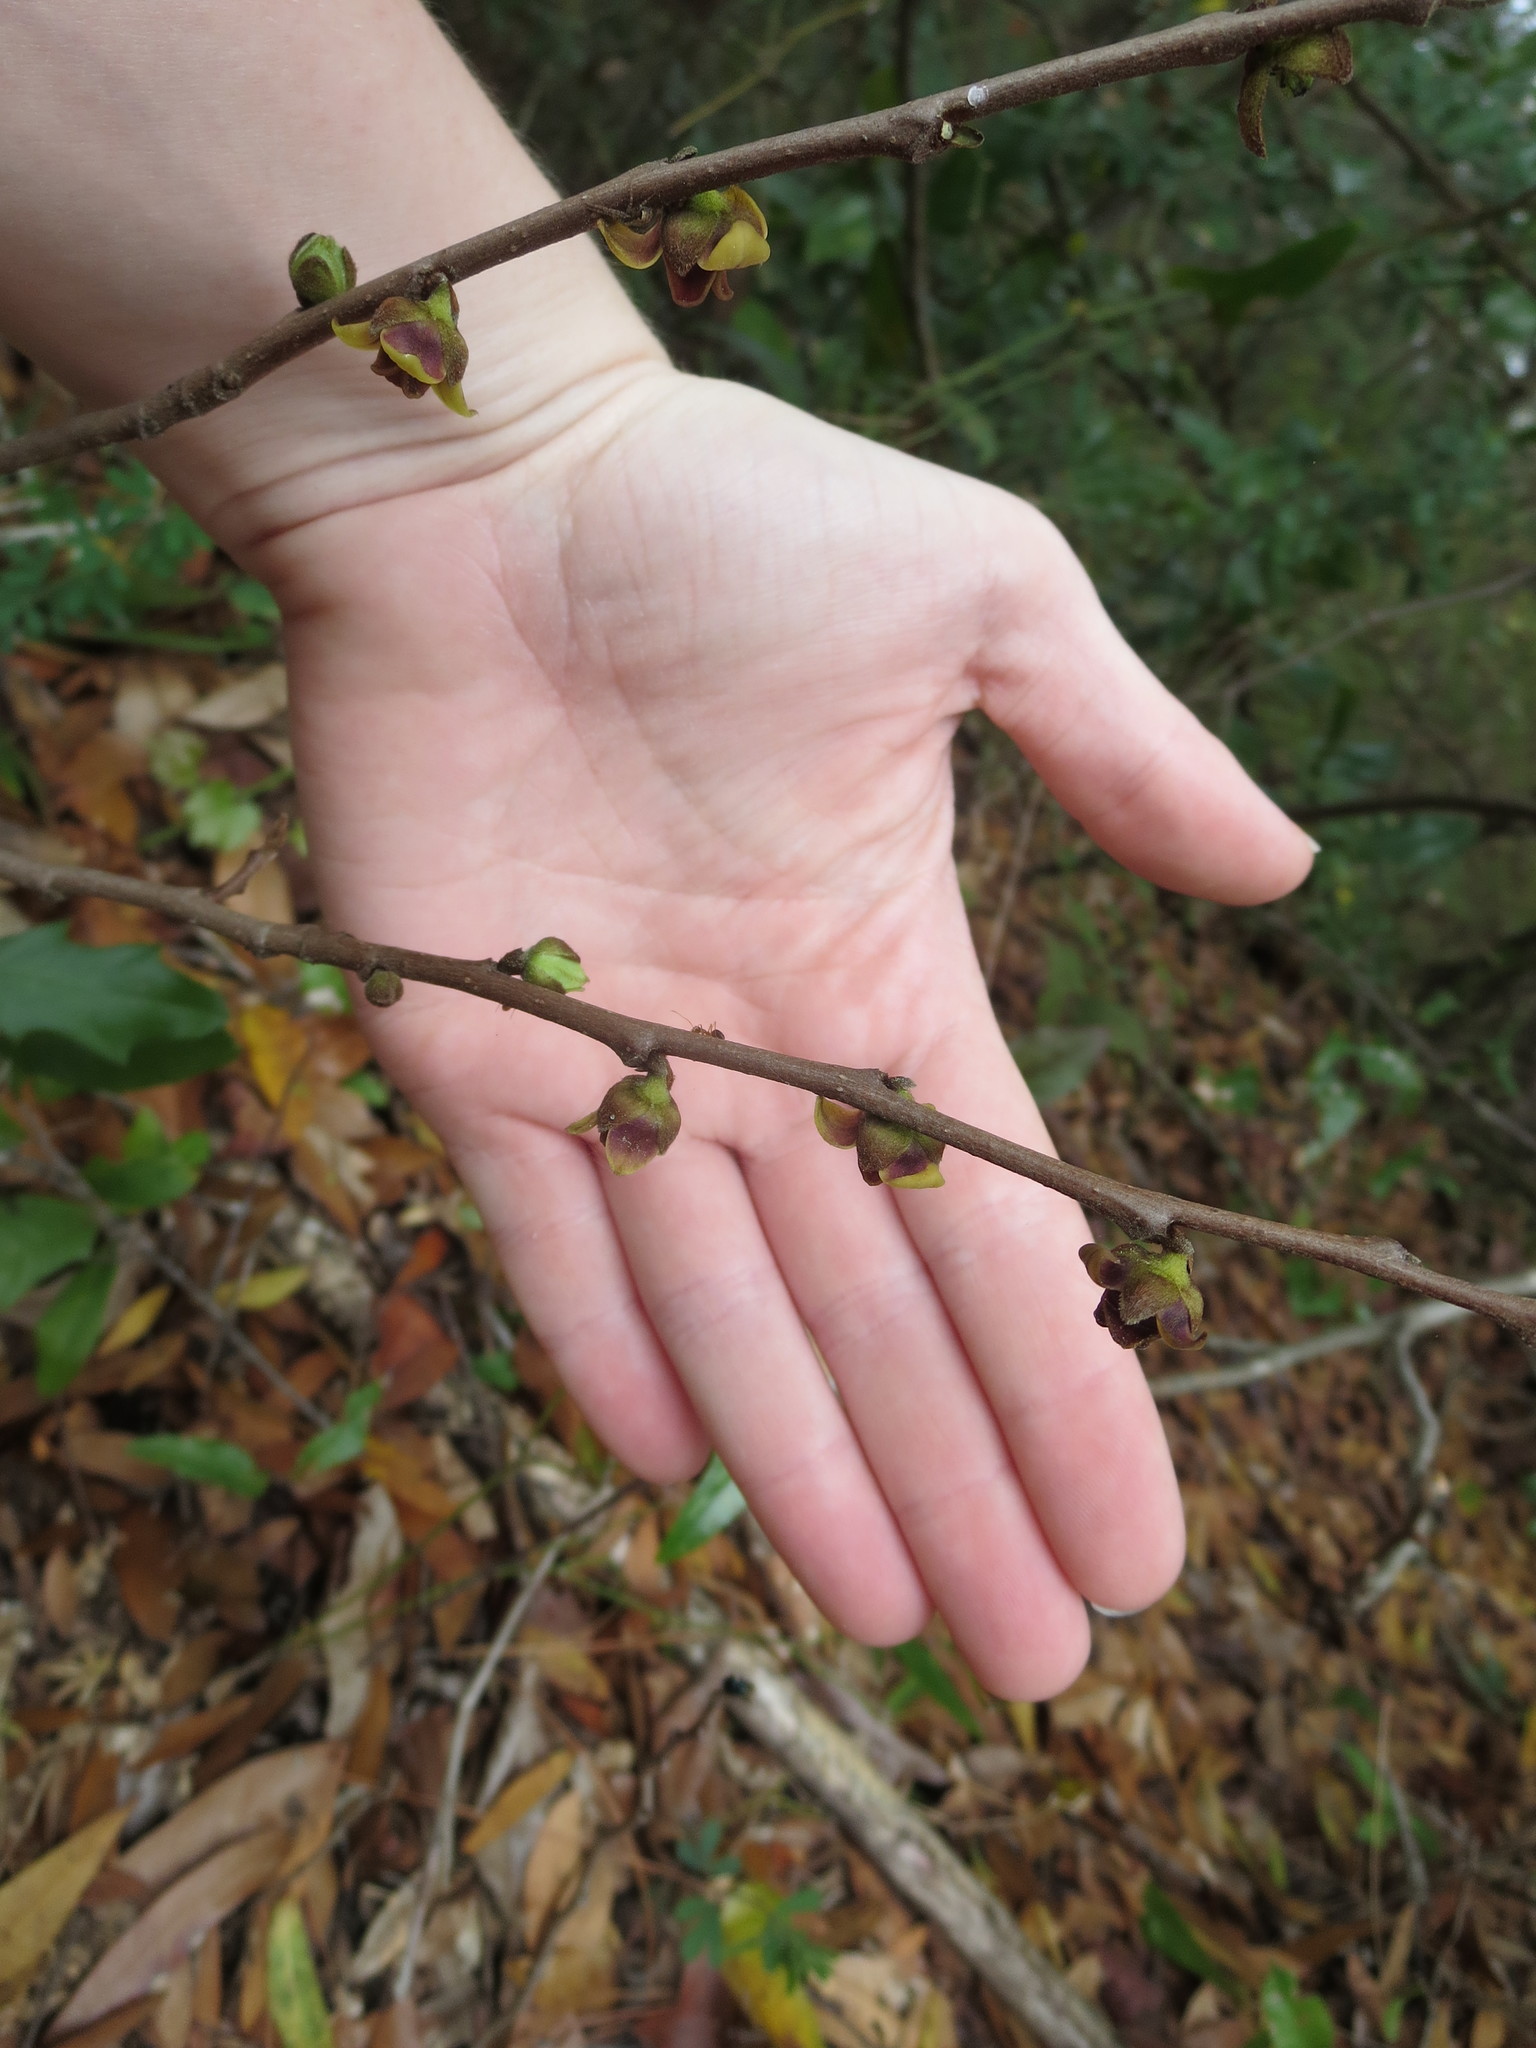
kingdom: Plantae
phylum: Tracheophyta
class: Magnoliopsida
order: Magnoliales
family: Annonaceae
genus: Asimina
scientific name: Asimina parviflora
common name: Dwarf pawpaw
